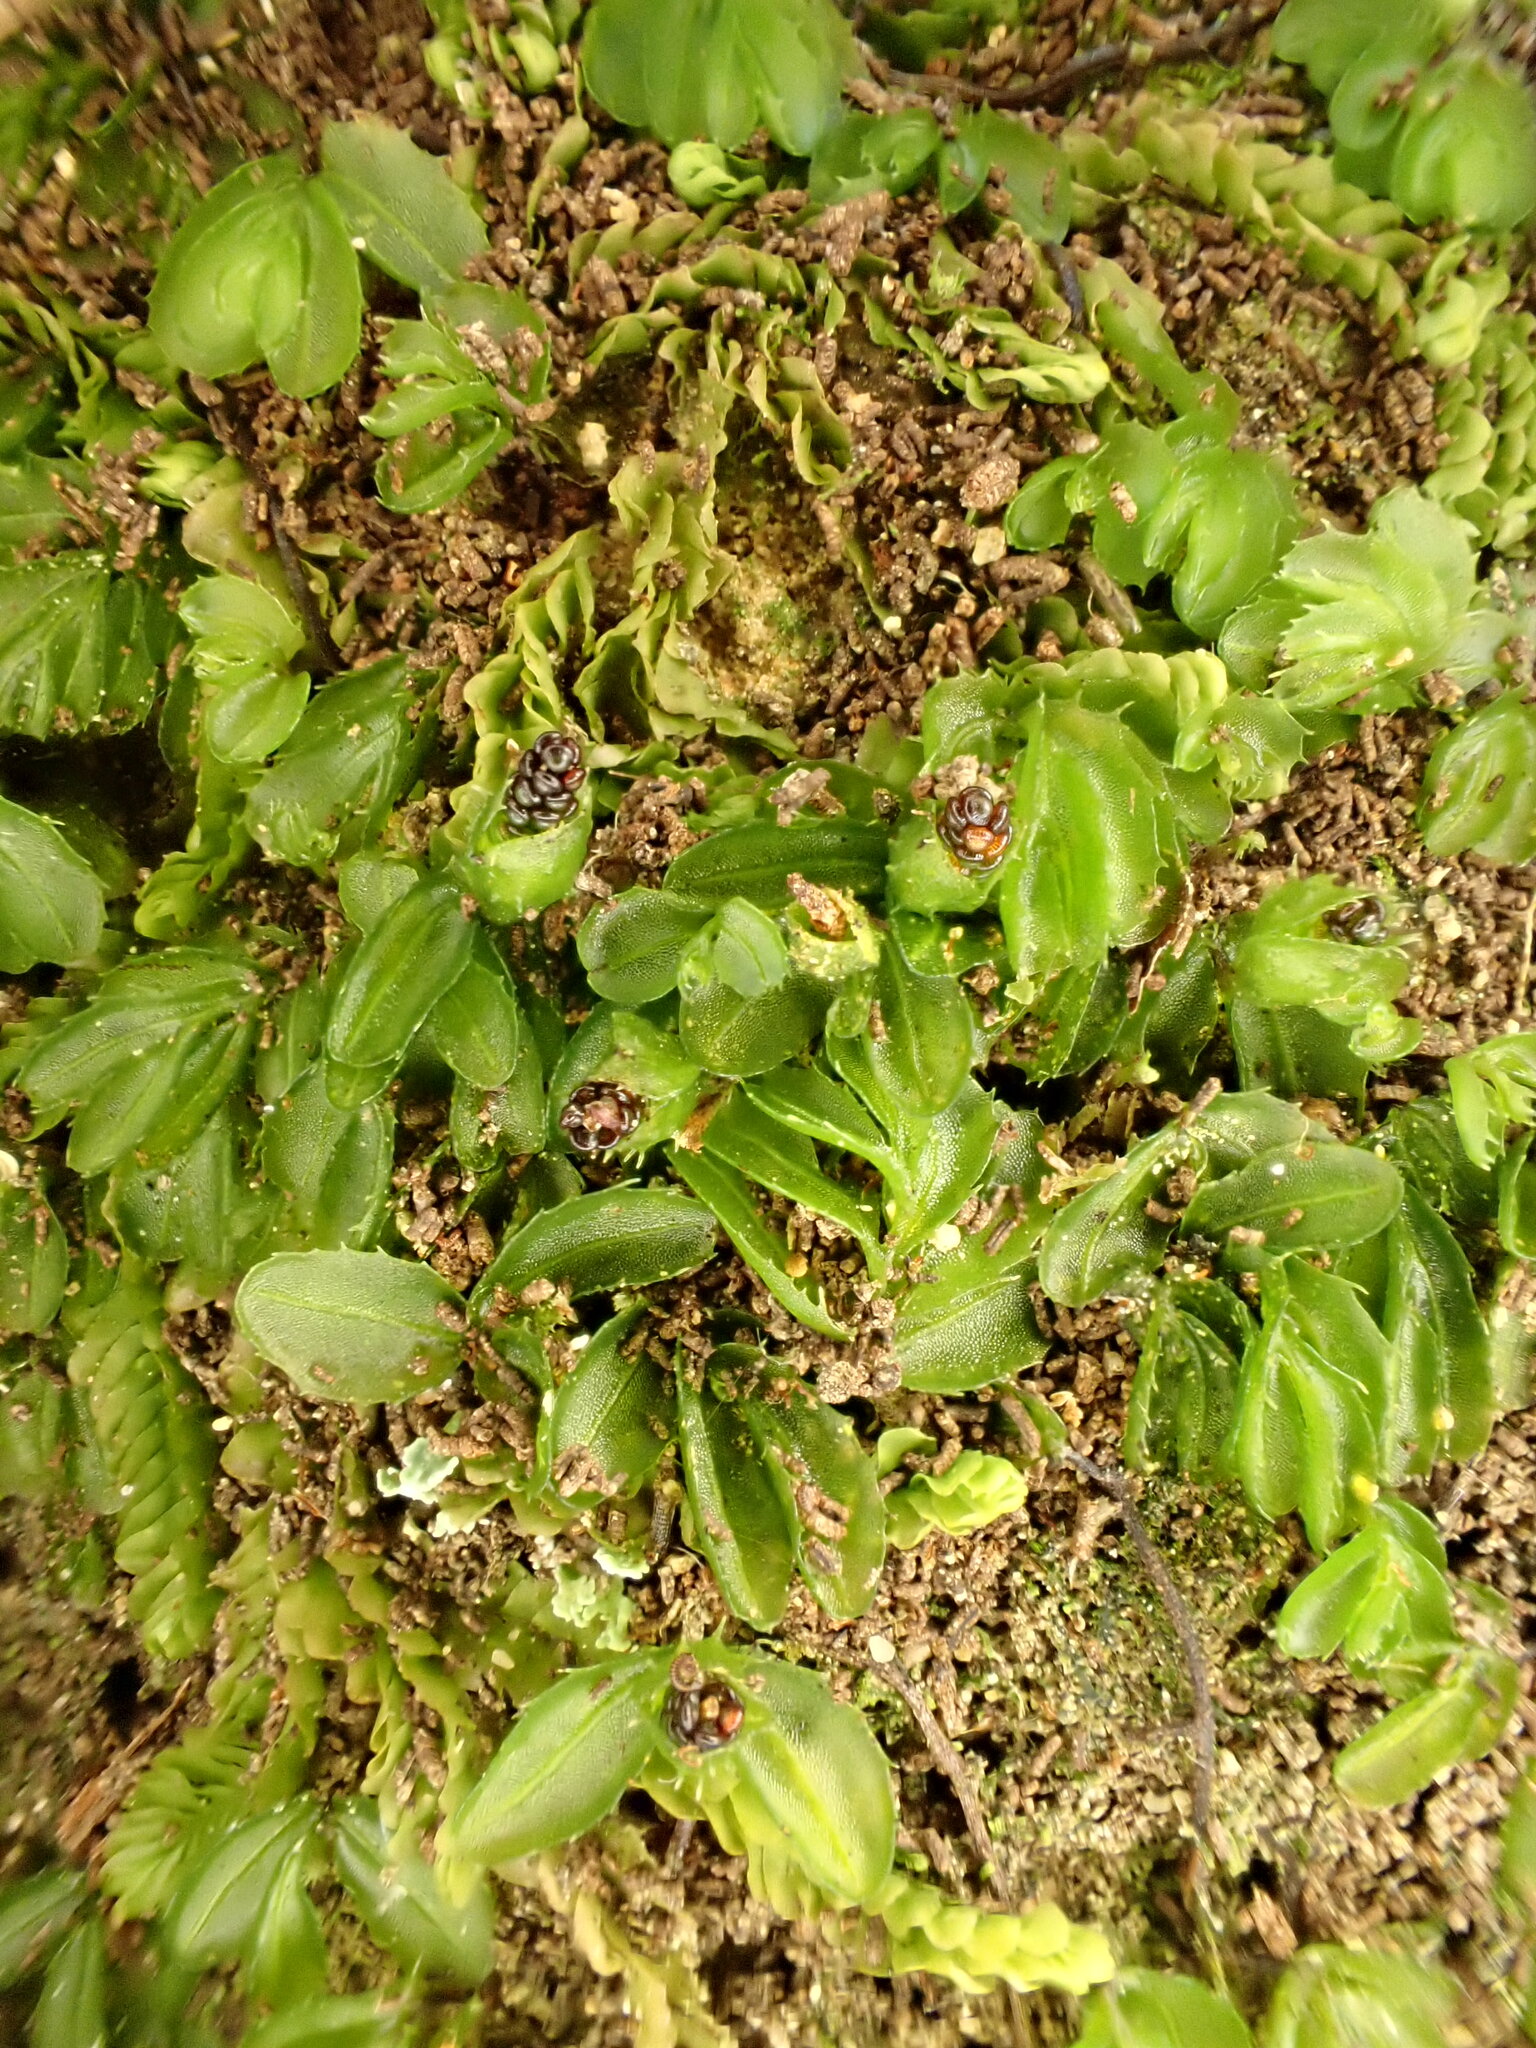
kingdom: Plantae
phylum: Tracheophyta
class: Polypodiopsida
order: Hymenophyllales
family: Hymenophyllaceae
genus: Hymenophyllum
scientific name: Hymenophyllum minimum
